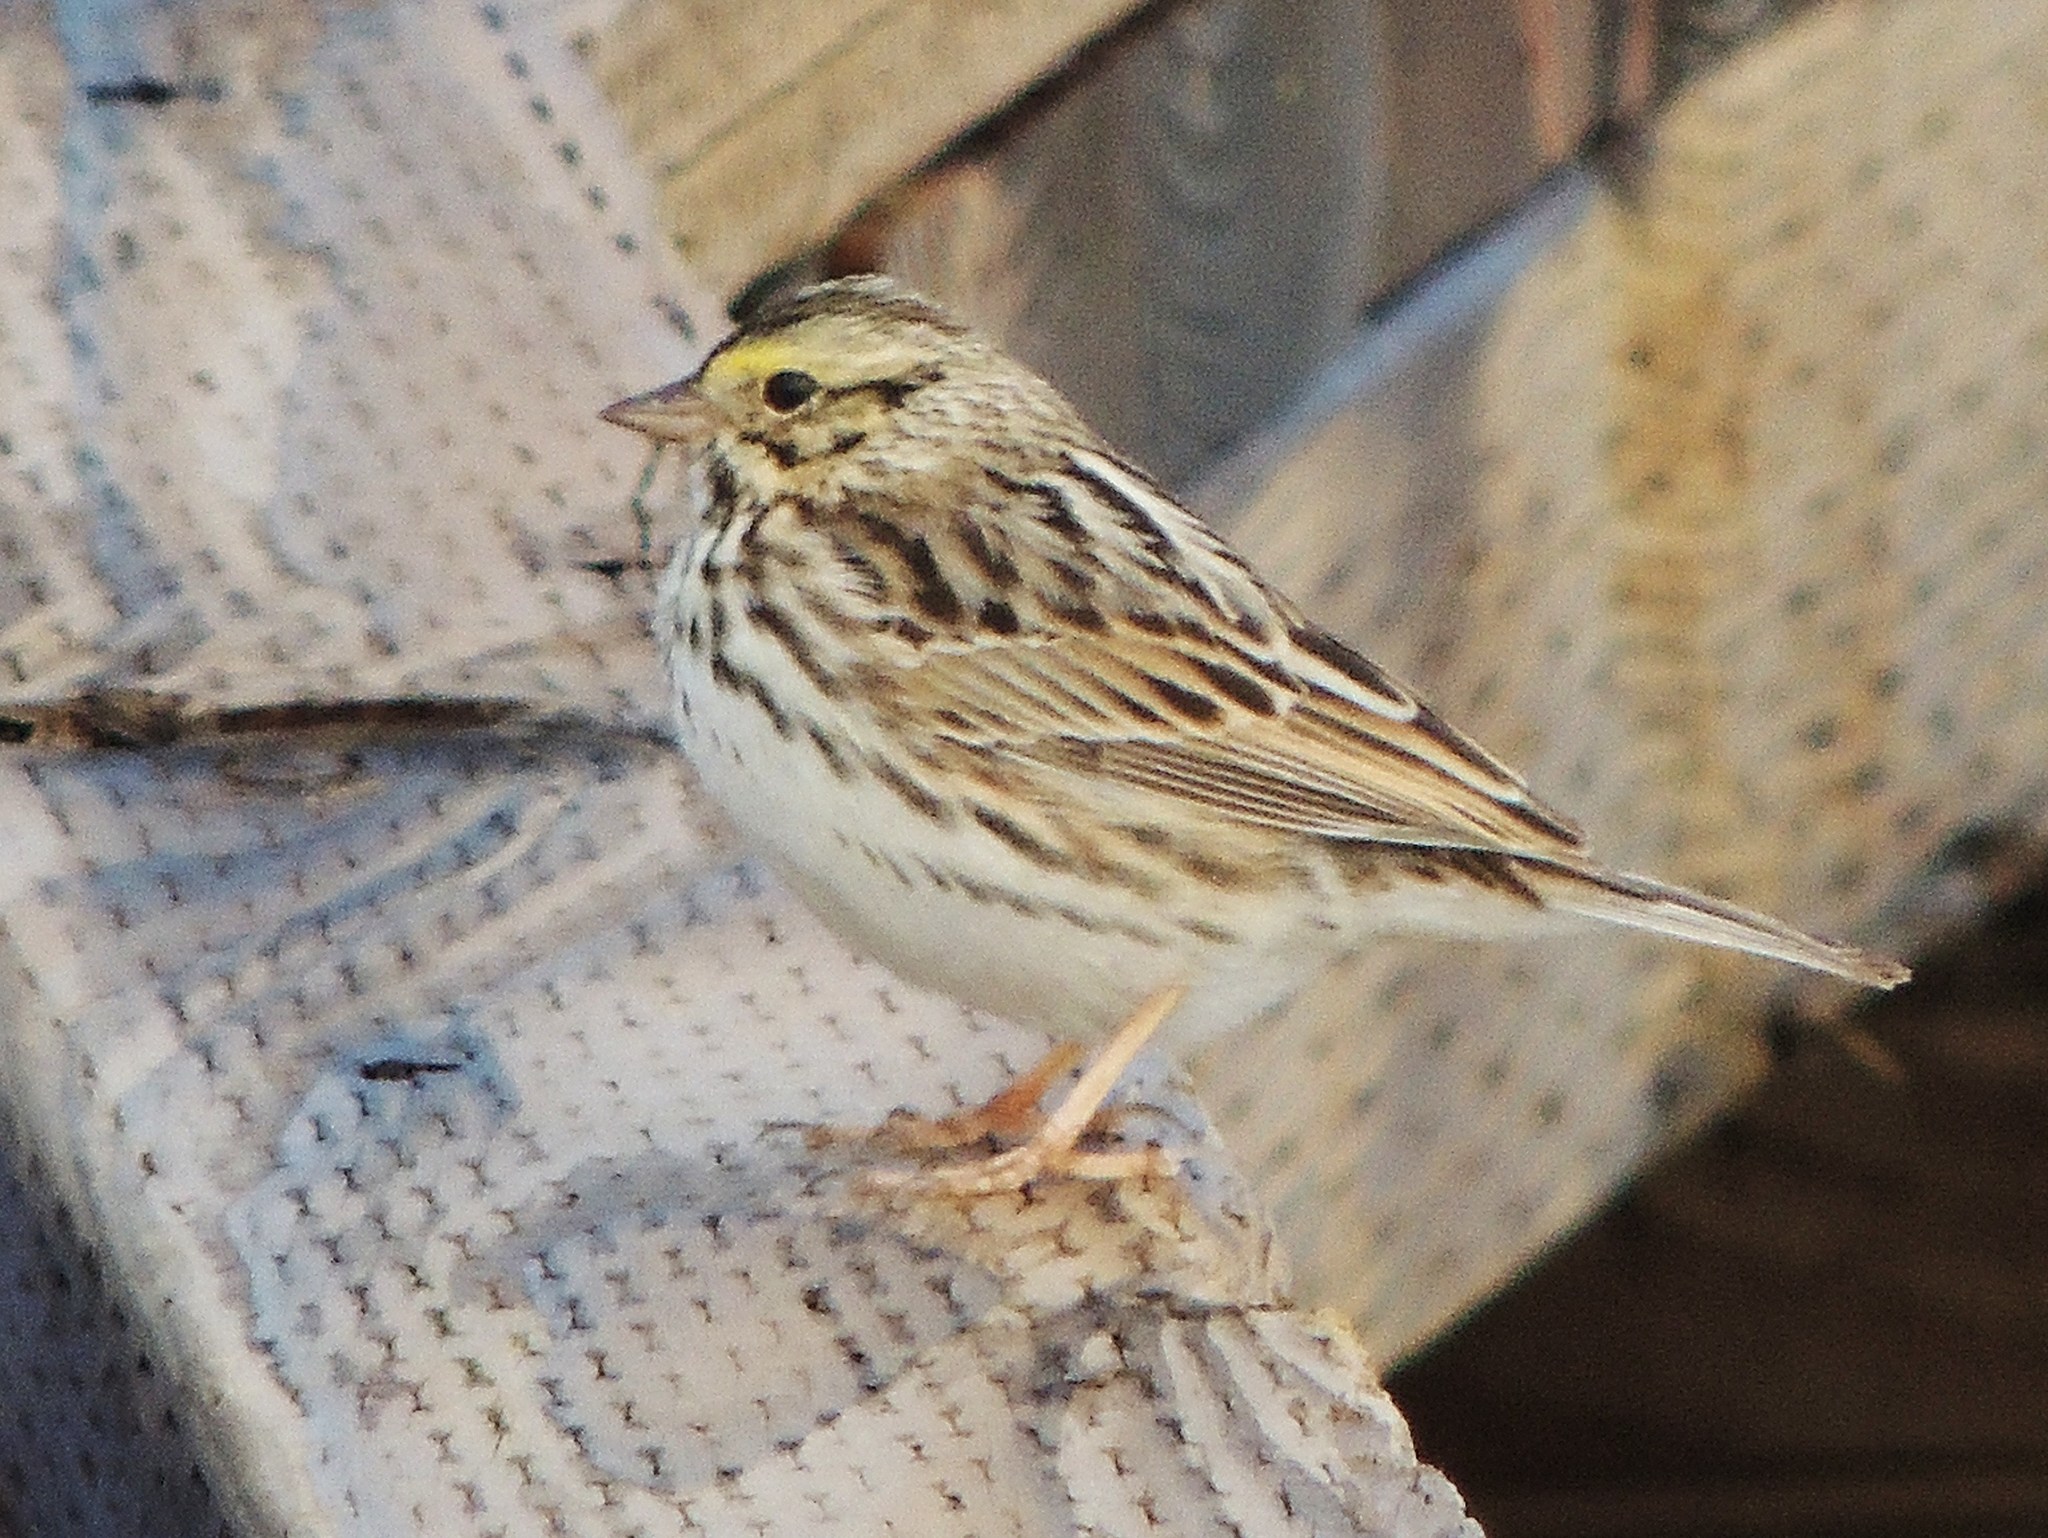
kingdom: Animalia
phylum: Chordata
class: Aves
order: Passeriformes
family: Passerellidae
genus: Passerculus
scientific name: Passerculus sandwichensis
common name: Savannah sparrow
